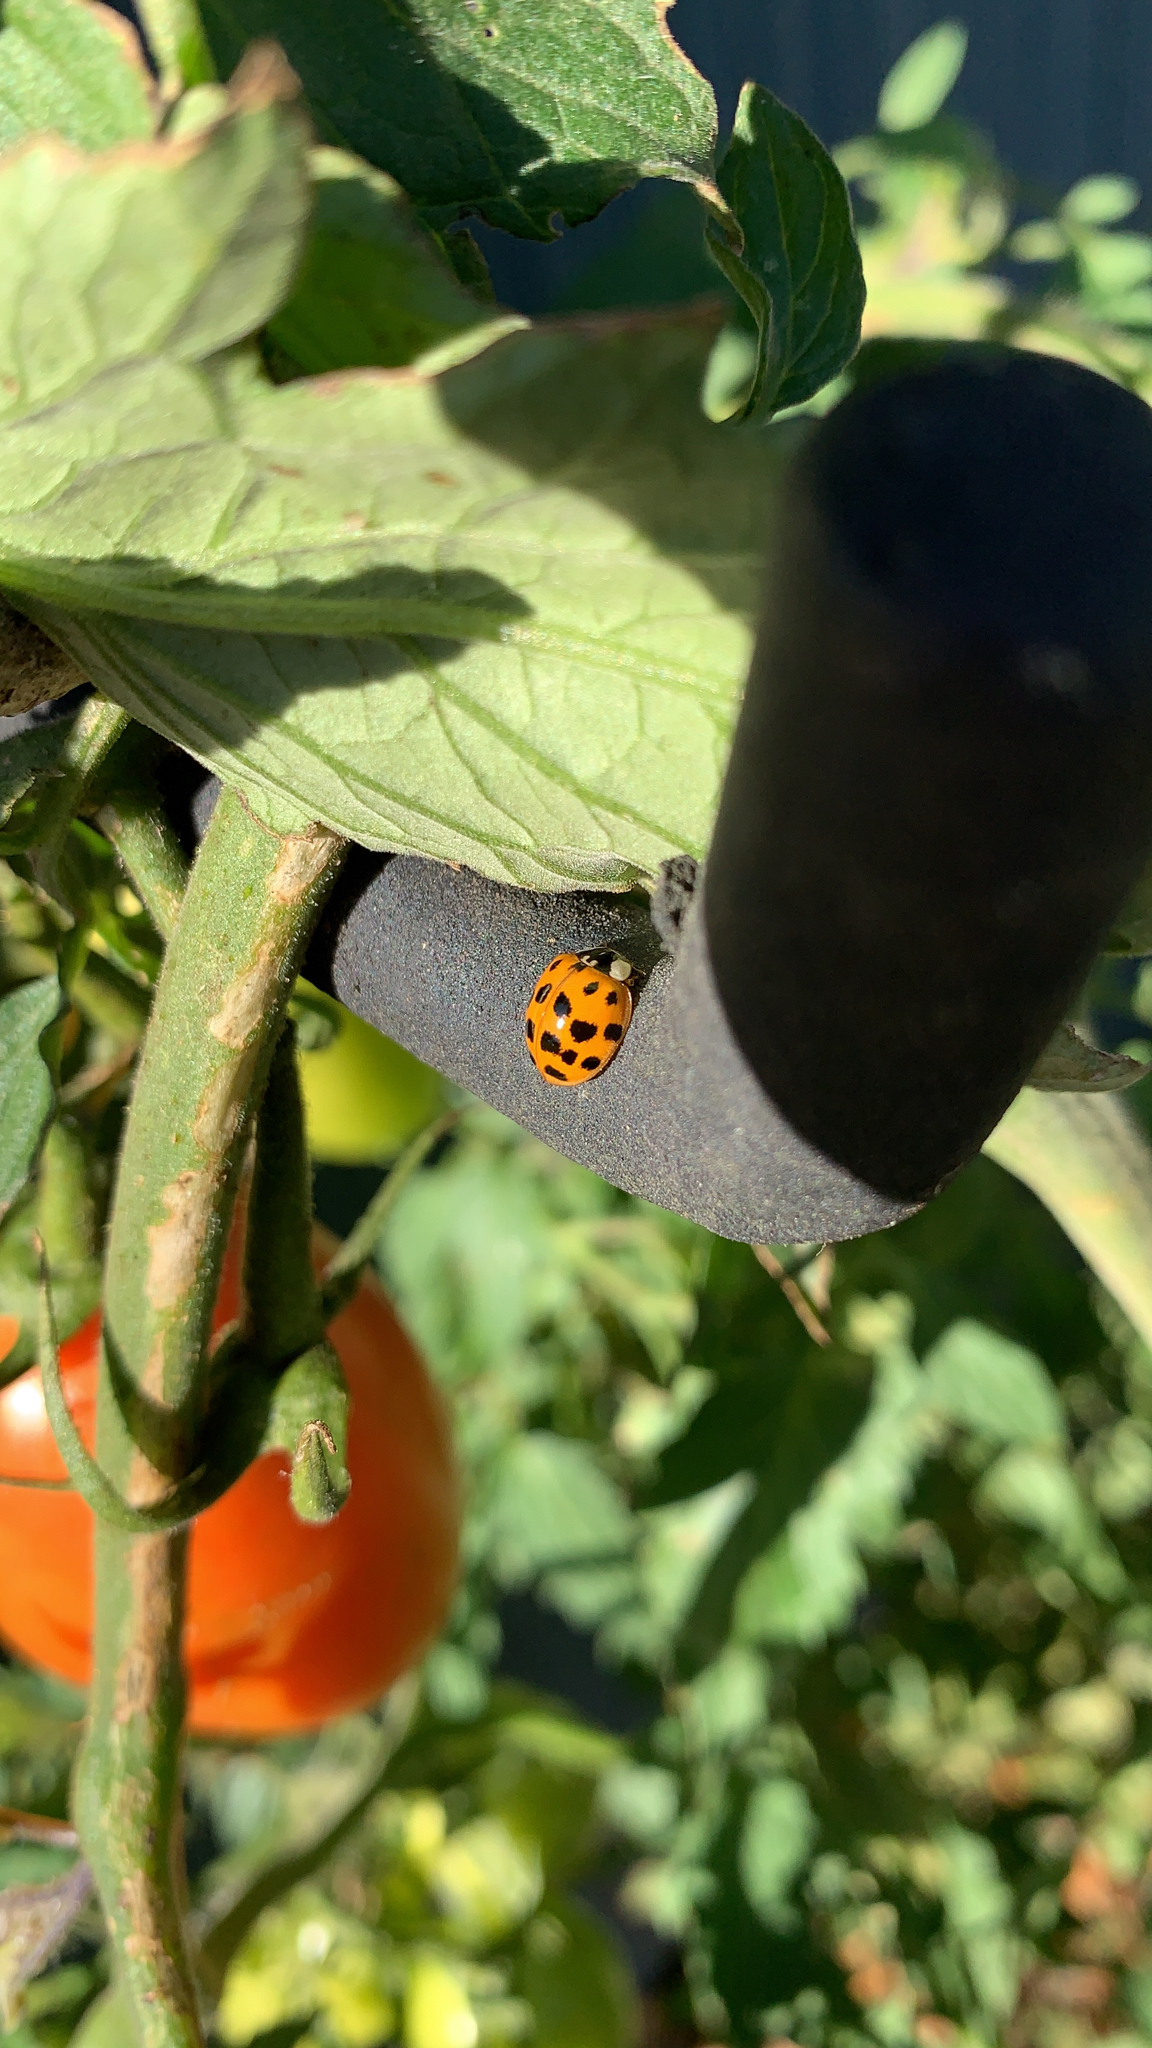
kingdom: Animalia
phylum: Arthropoda
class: Insecta
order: Coleoptera
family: Coccinellidae
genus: Harmonia
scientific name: Harmonia axyridis
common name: Harlequin ladybird
